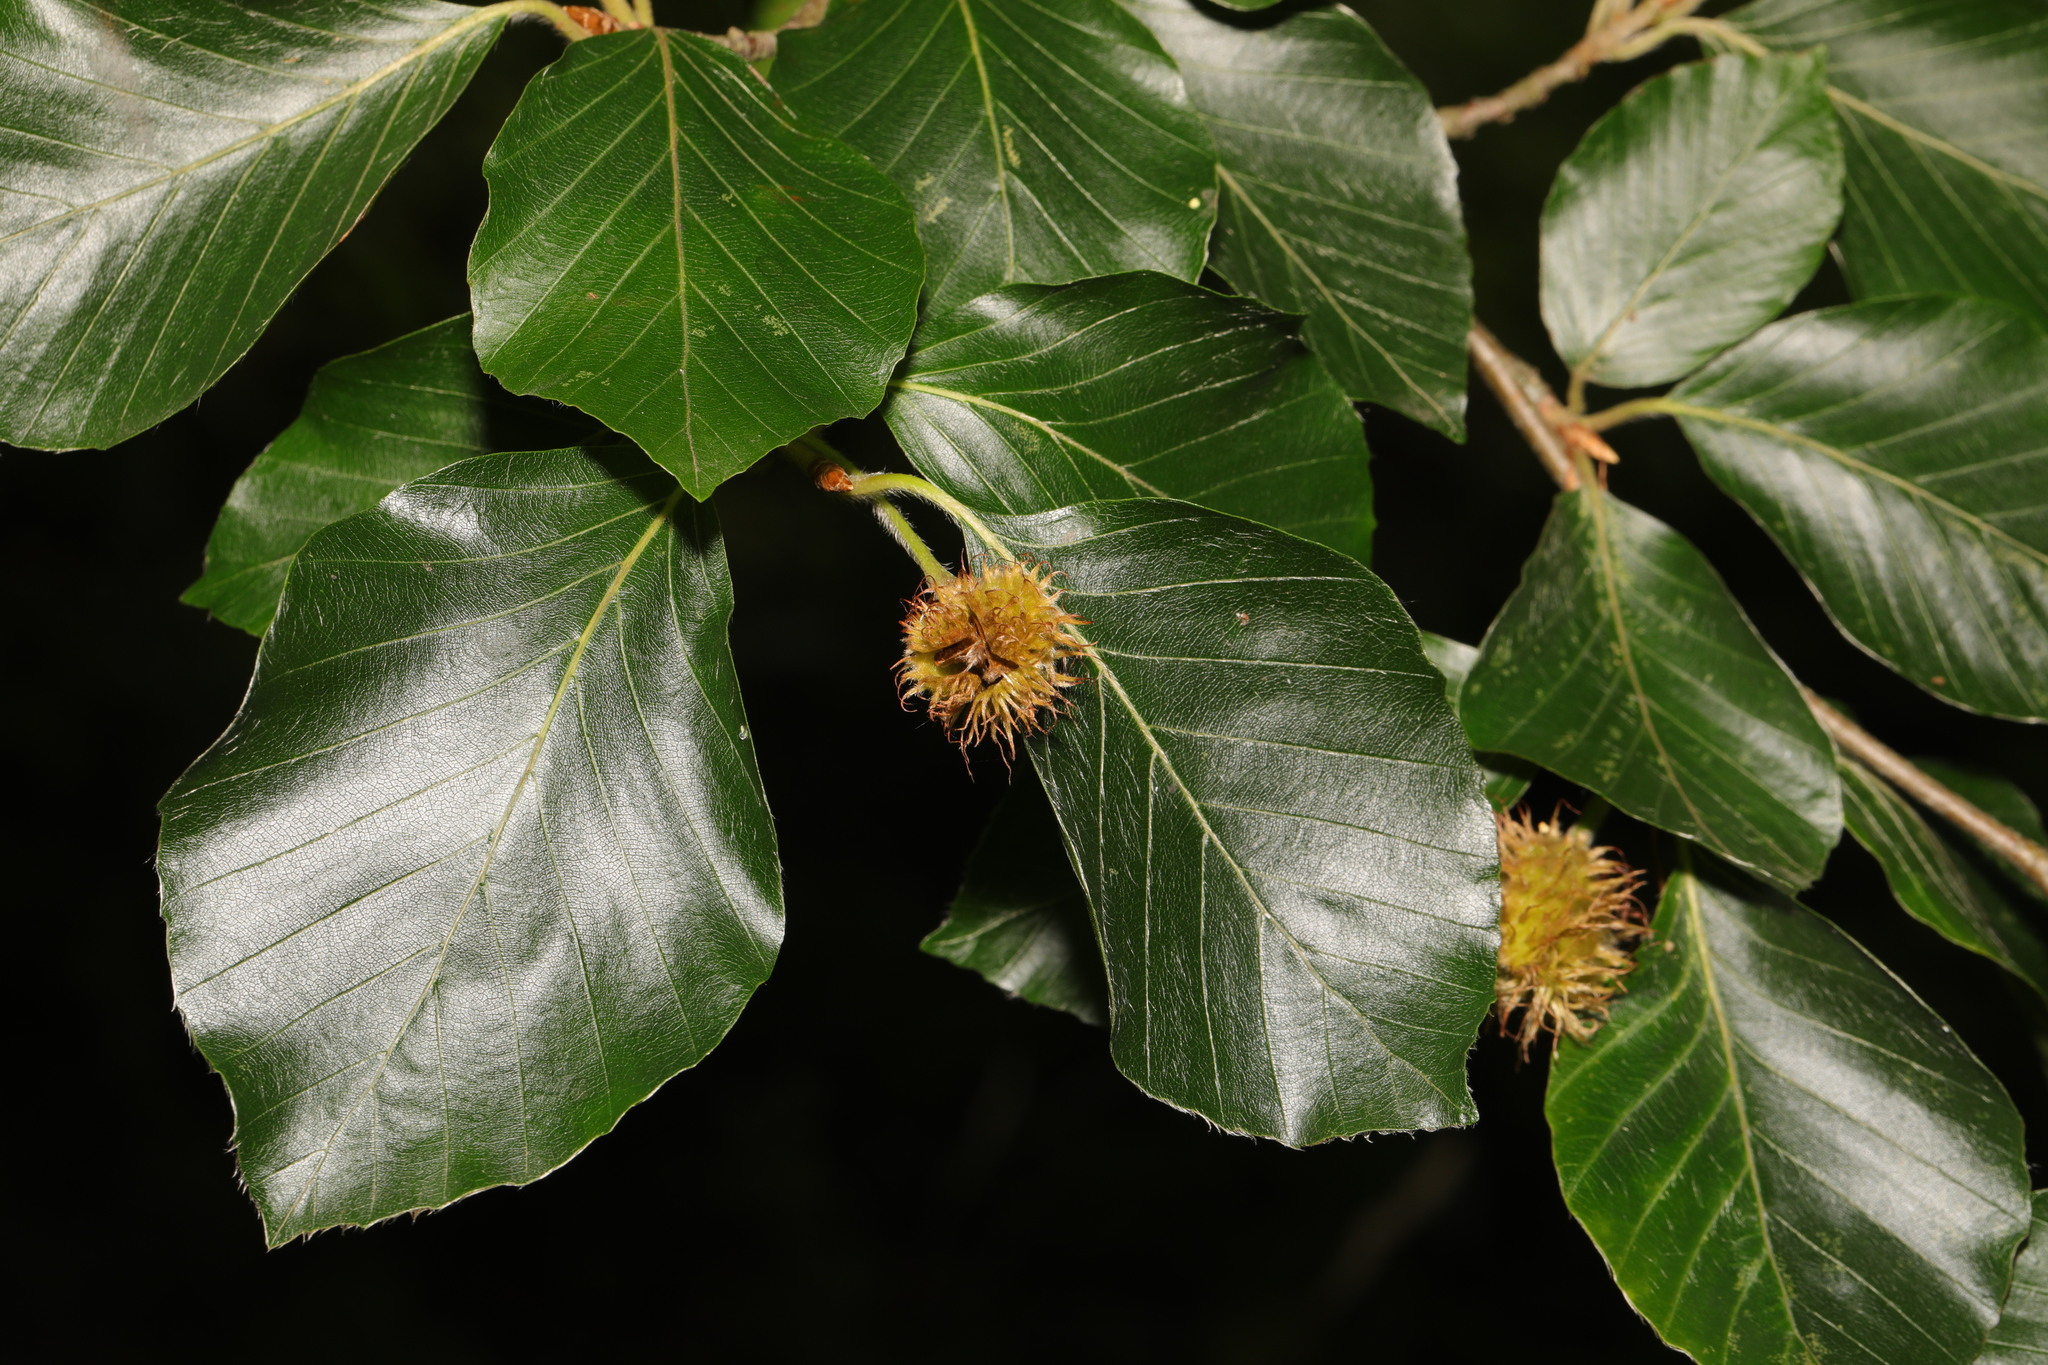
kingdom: Plantae
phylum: Tracheophyta
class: Magnoliopsida
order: Fagales
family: Fagaceae
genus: Fagus
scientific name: Fagus sylvatica
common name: Beech
